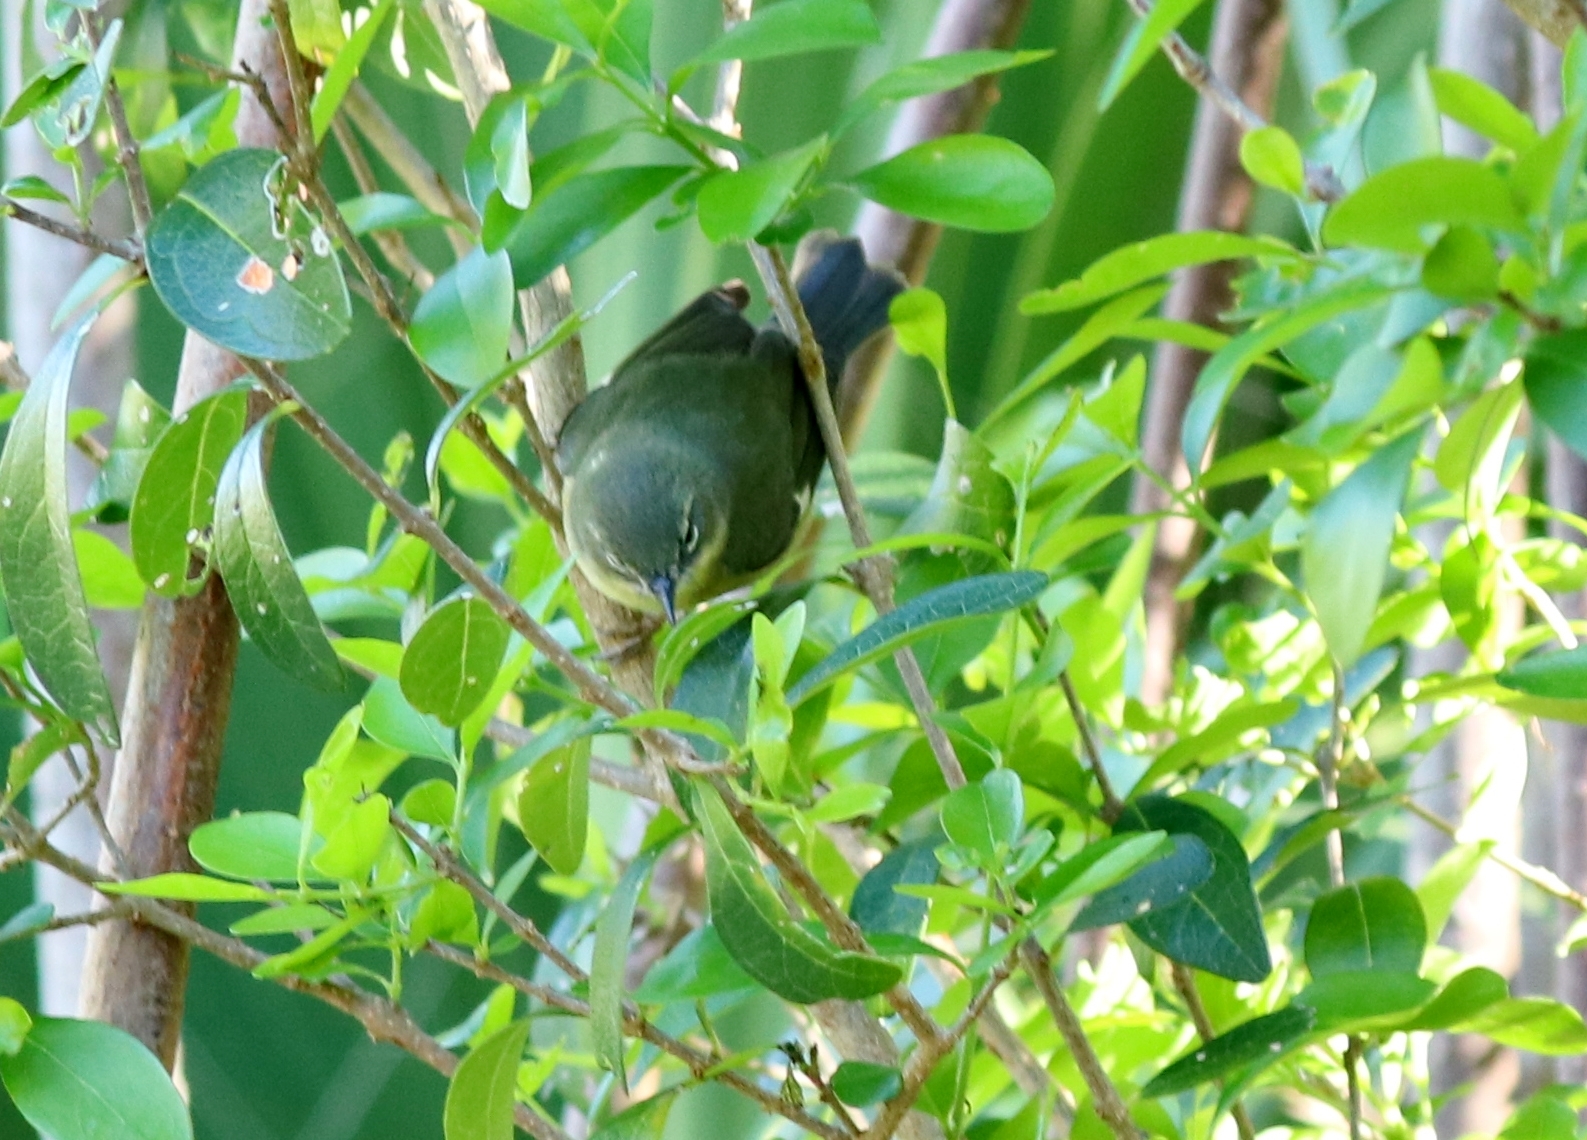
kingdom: Animalia
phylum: Chordata
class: Aves
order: Passeriformes
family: Parulidae
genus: Setophaga
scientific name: Setophaga caerulescens
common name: Black-throated blue warbler
